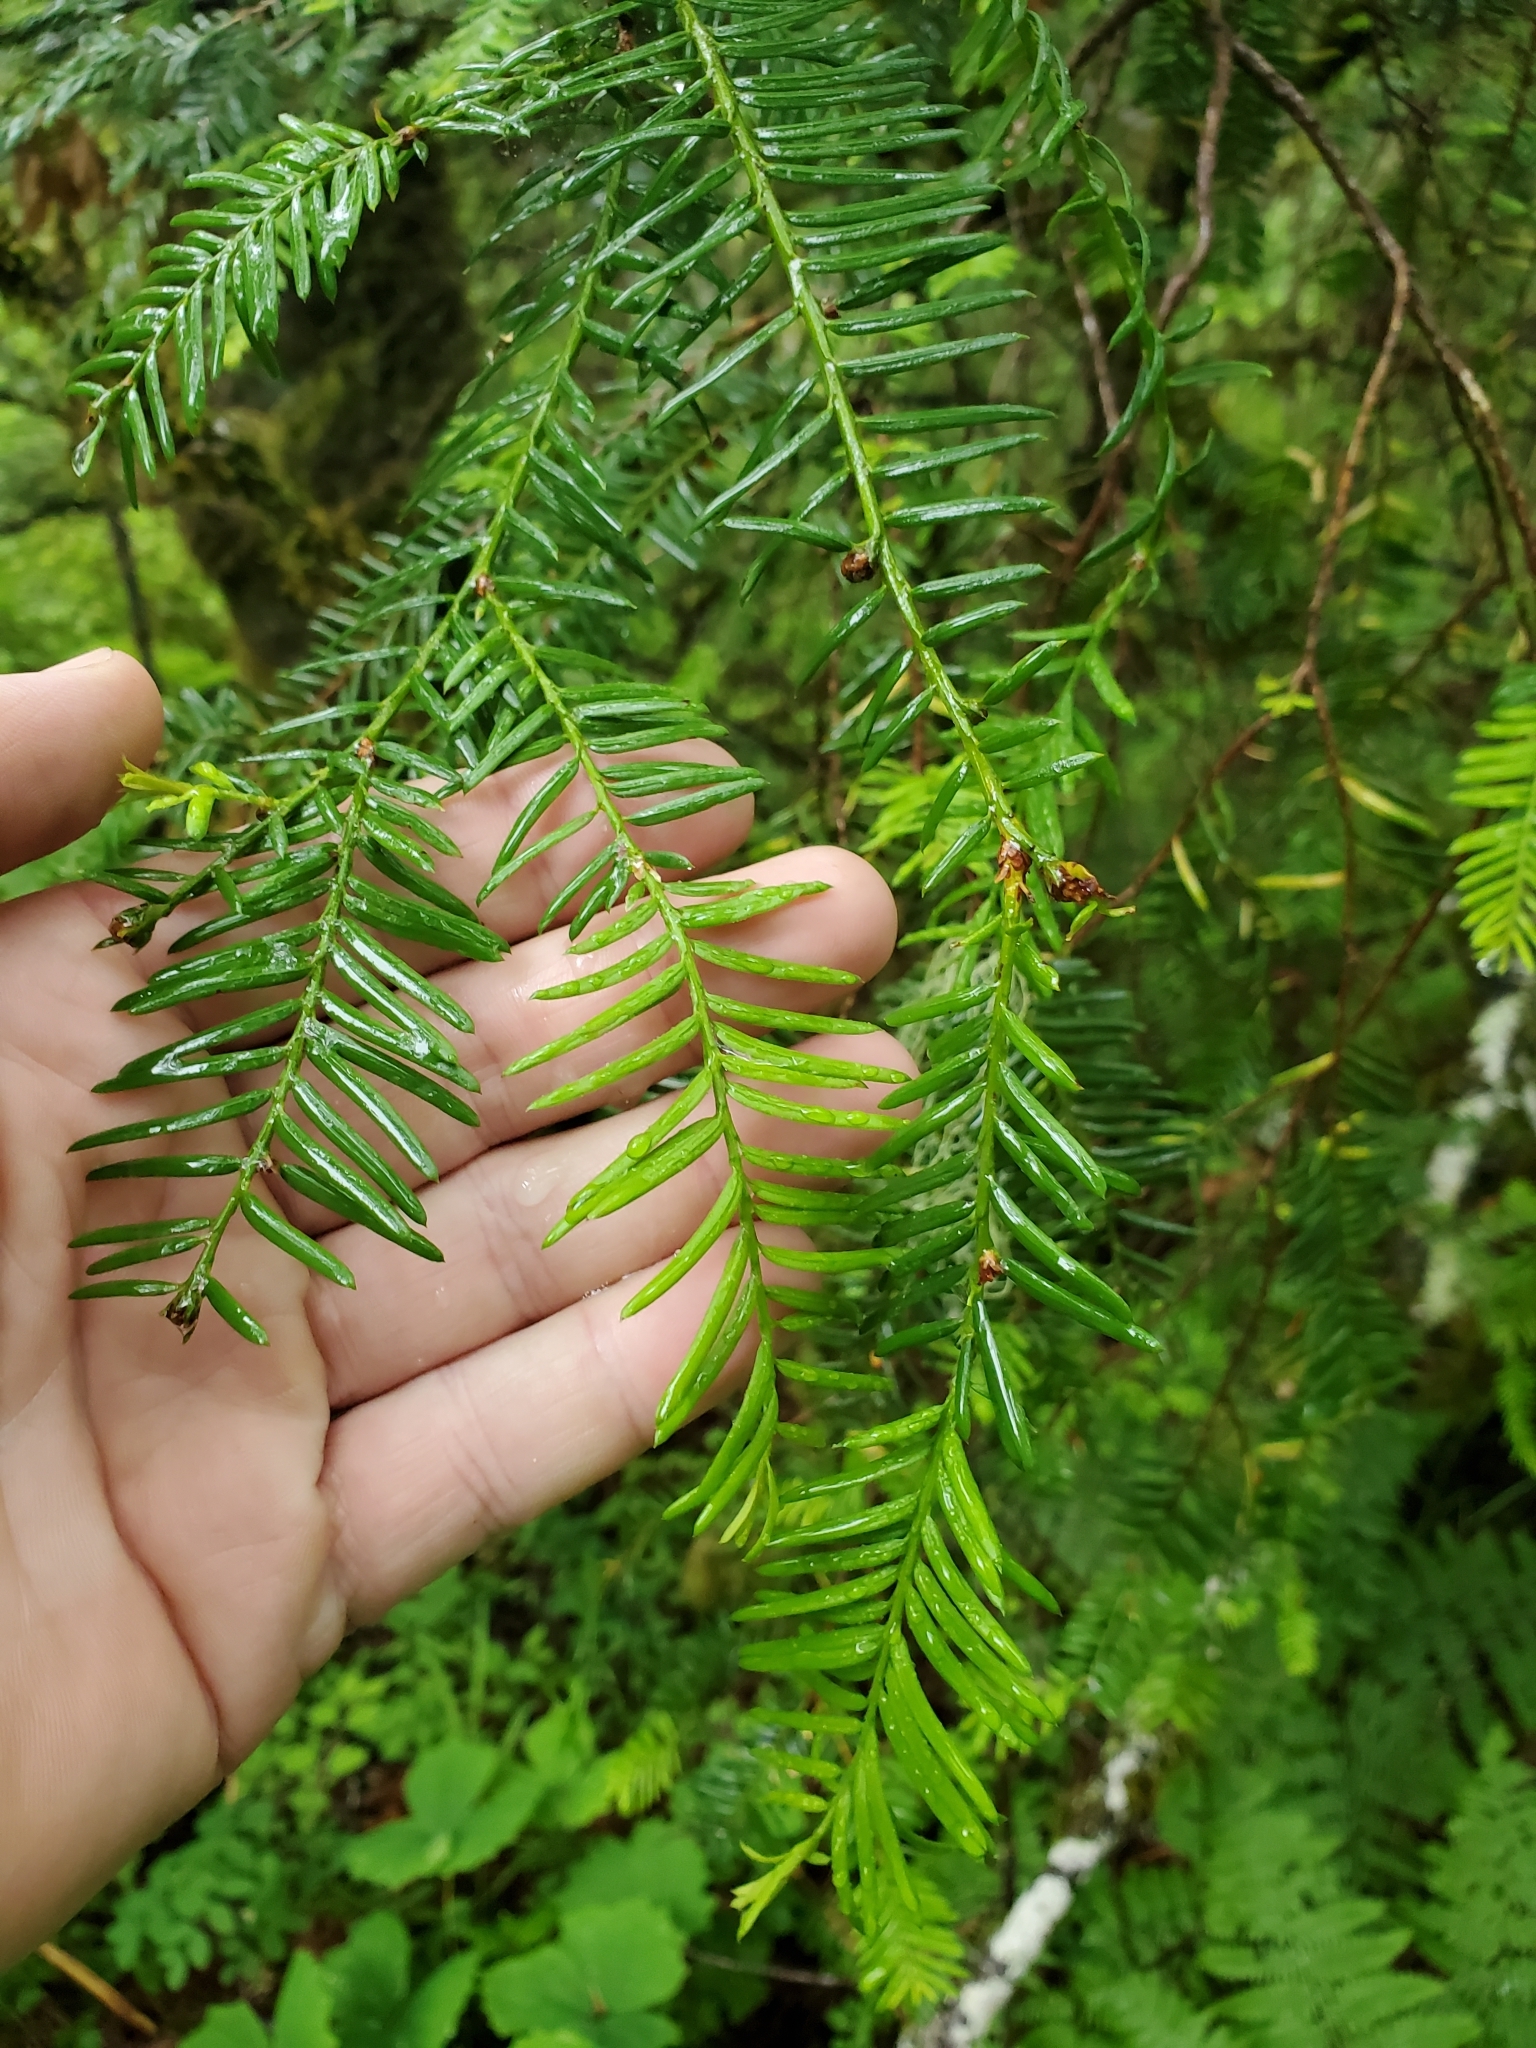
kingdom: Plantae
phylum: Tracheophyta
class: Pinopsida
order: Pinales
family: Taxaceae
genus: Taxus
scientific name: Taxus brevifolia
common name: Pacific yew
